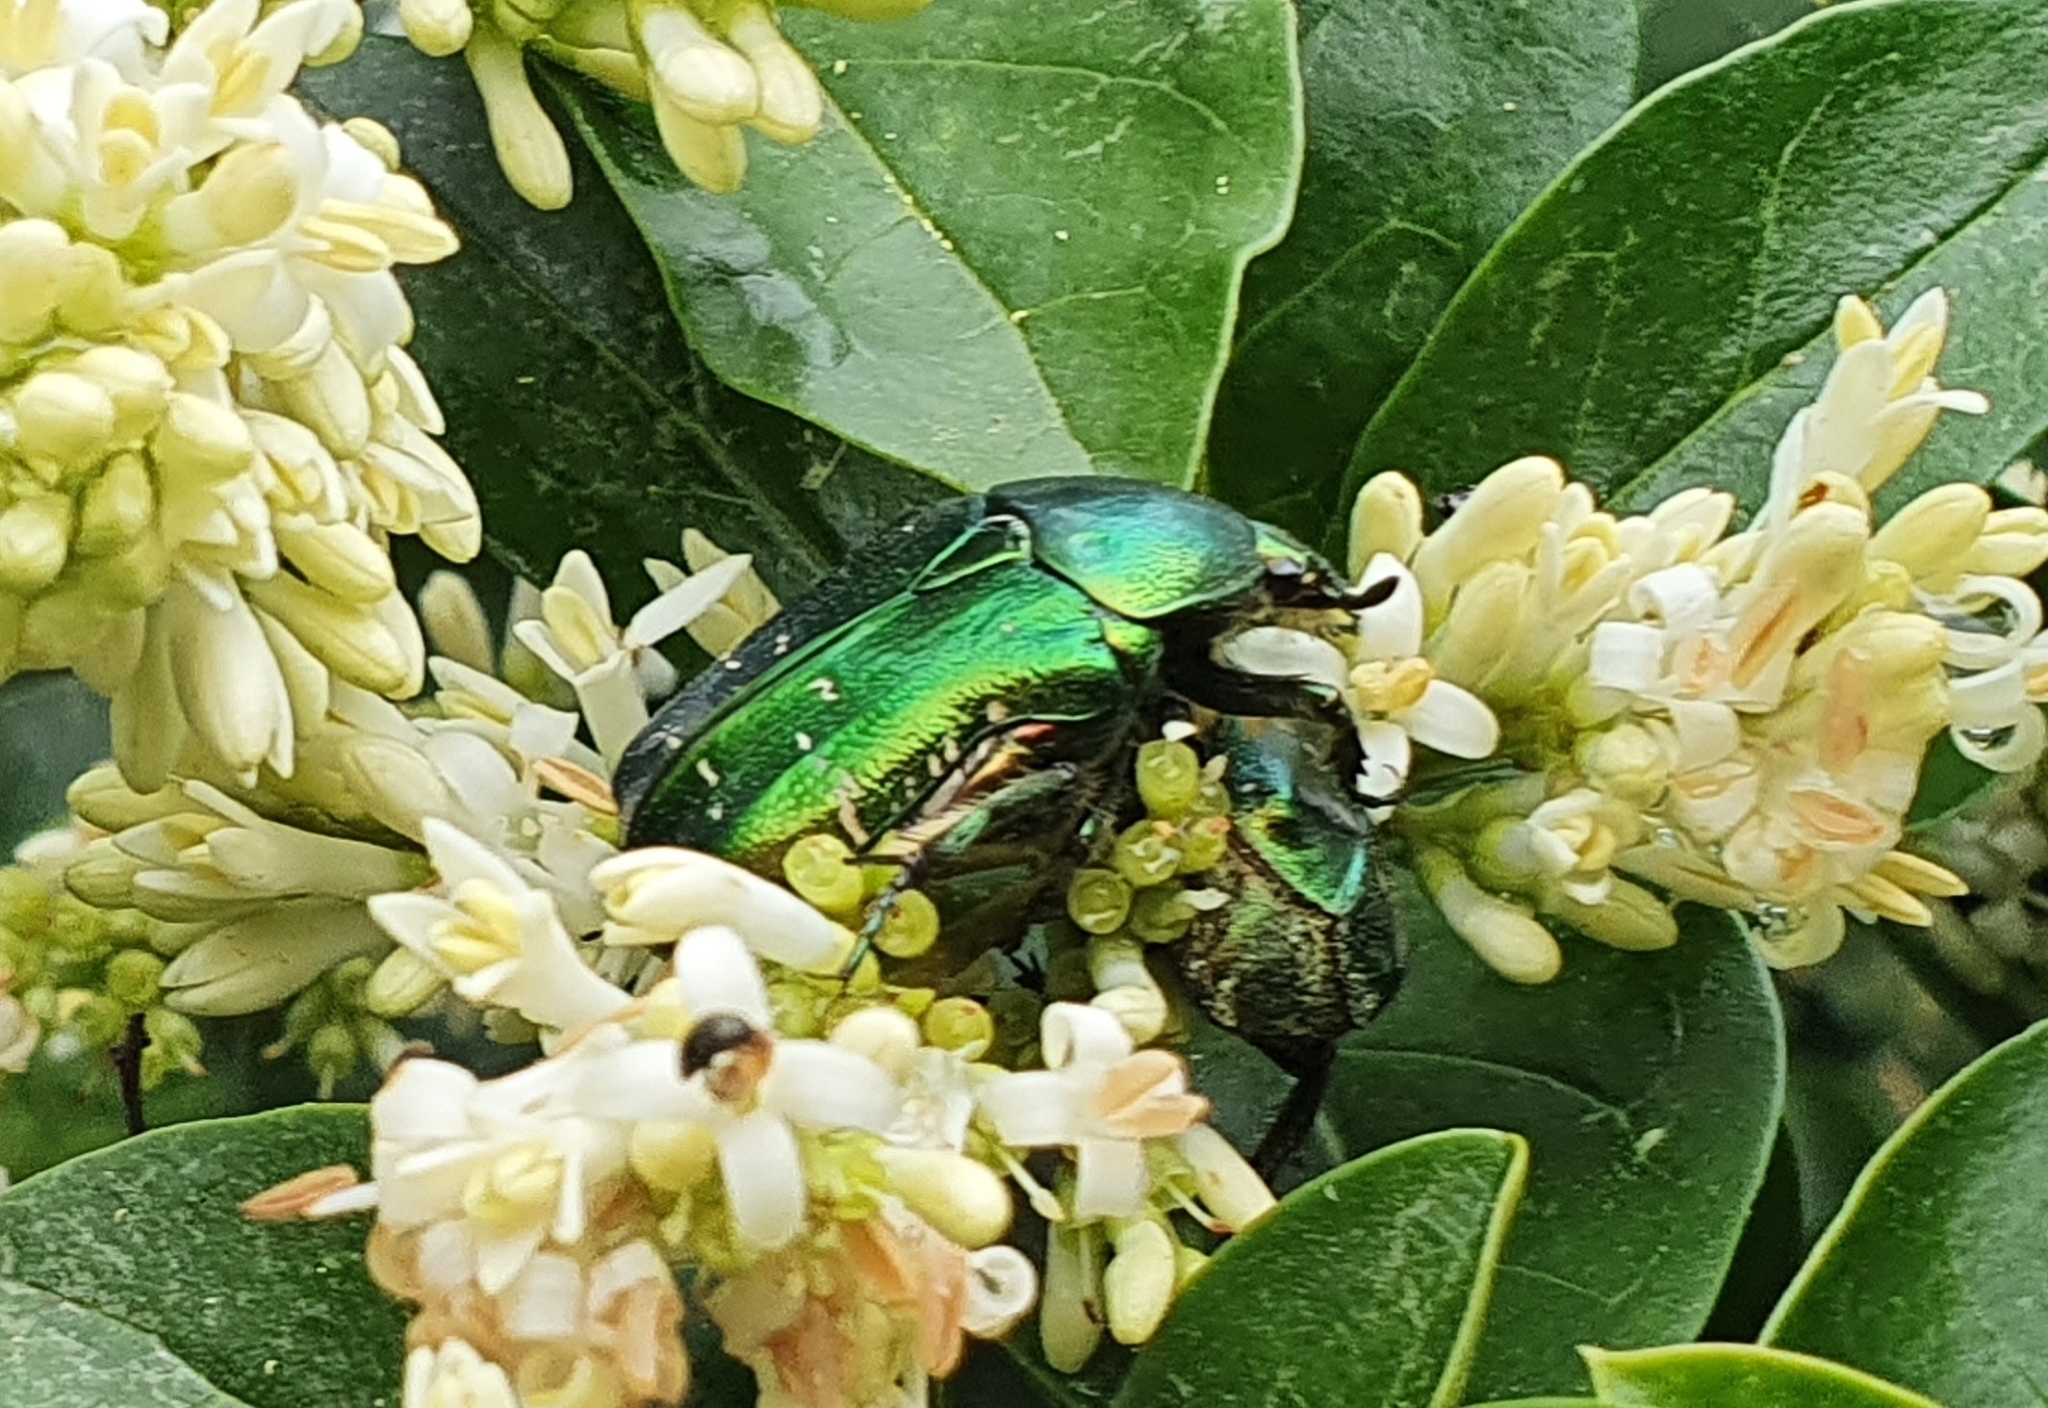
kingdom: Animalia
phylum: Arthropoda
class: Insecta
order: Coleoptera
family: Scarabaeidae
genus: Cetonia
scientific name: Cetonia aurata
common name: Rose chafer
